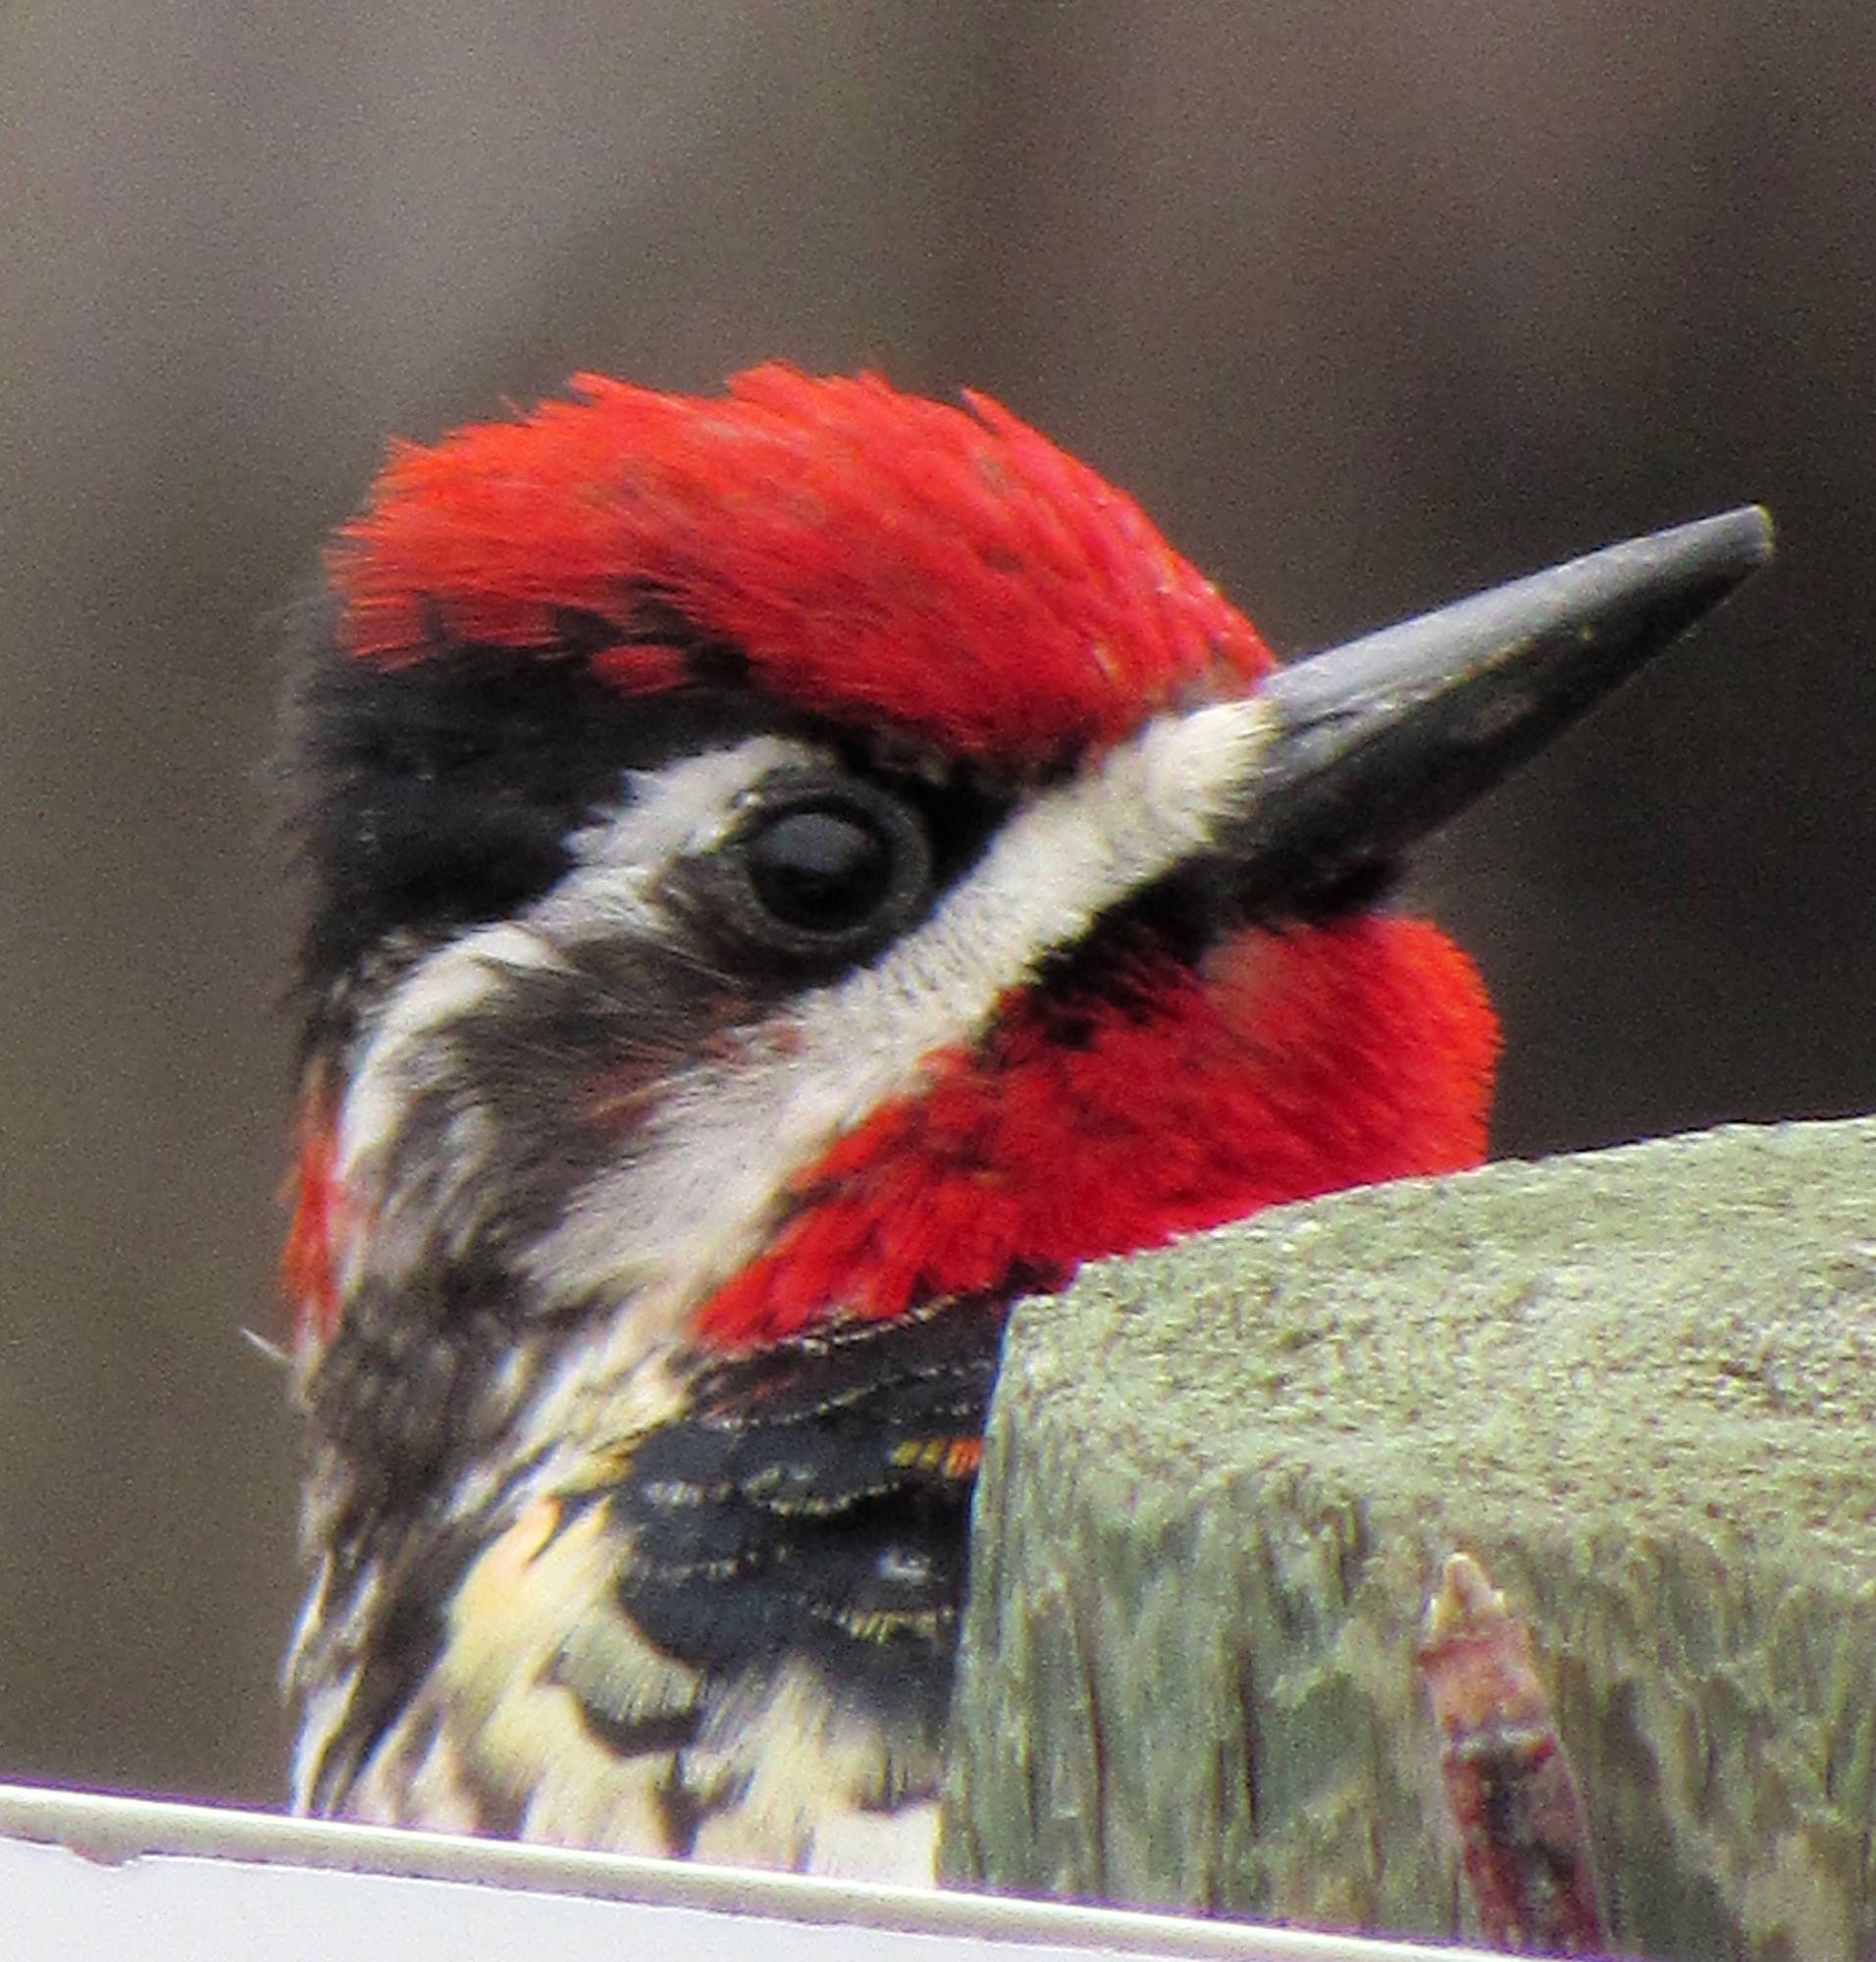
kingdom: Animalia
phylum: Chordata
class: Aves
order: Piciformes
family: Picidae
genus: Sphyrapicus
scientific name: Sphyrapicus nuchalis
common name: Red-naped sapsucker
